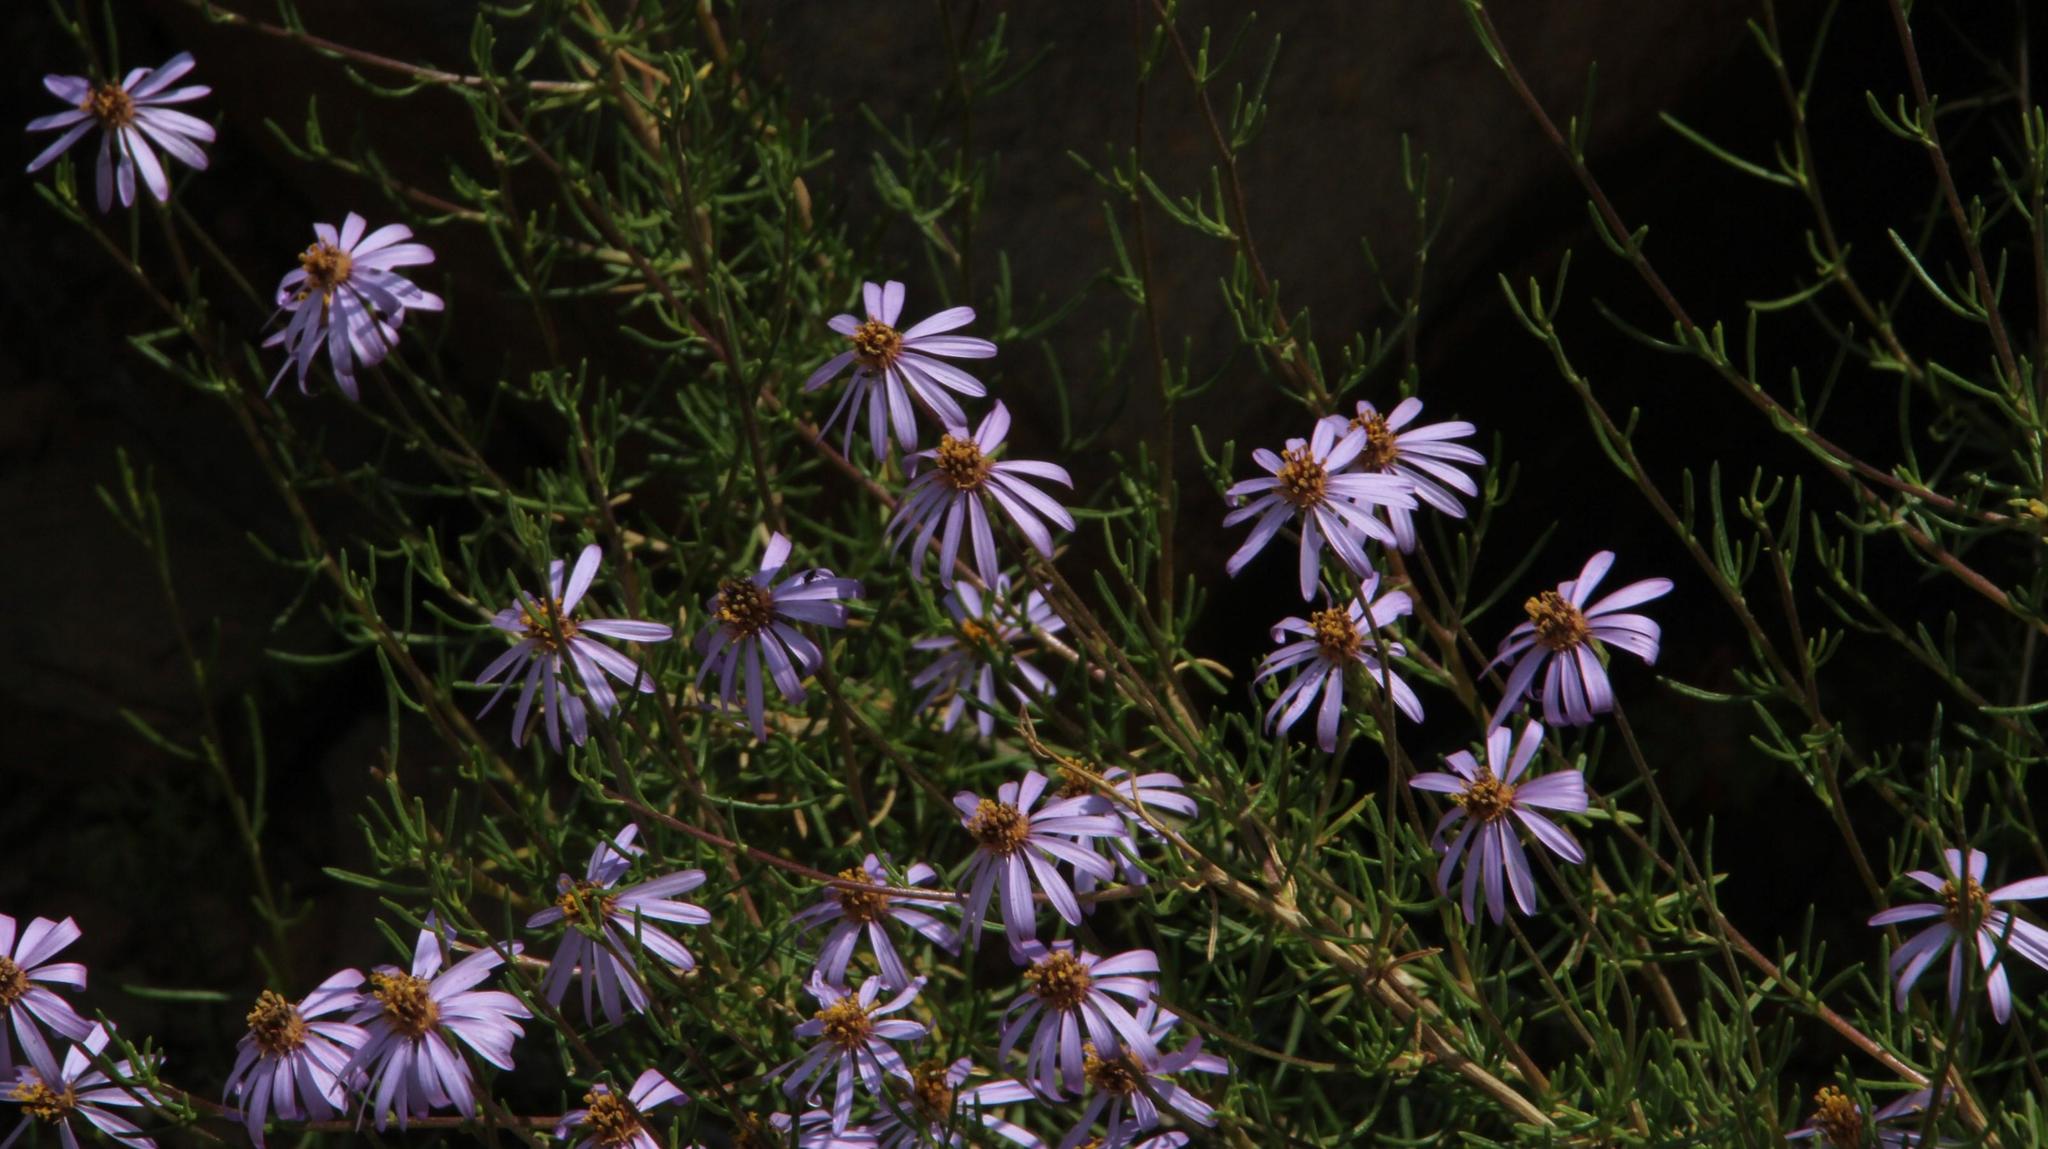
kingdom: Plantae
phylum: Tracheophyta
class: Magnoliopsida
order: Asterales
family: Asteraceae
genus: Felicia
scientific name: Felicia filifolia
